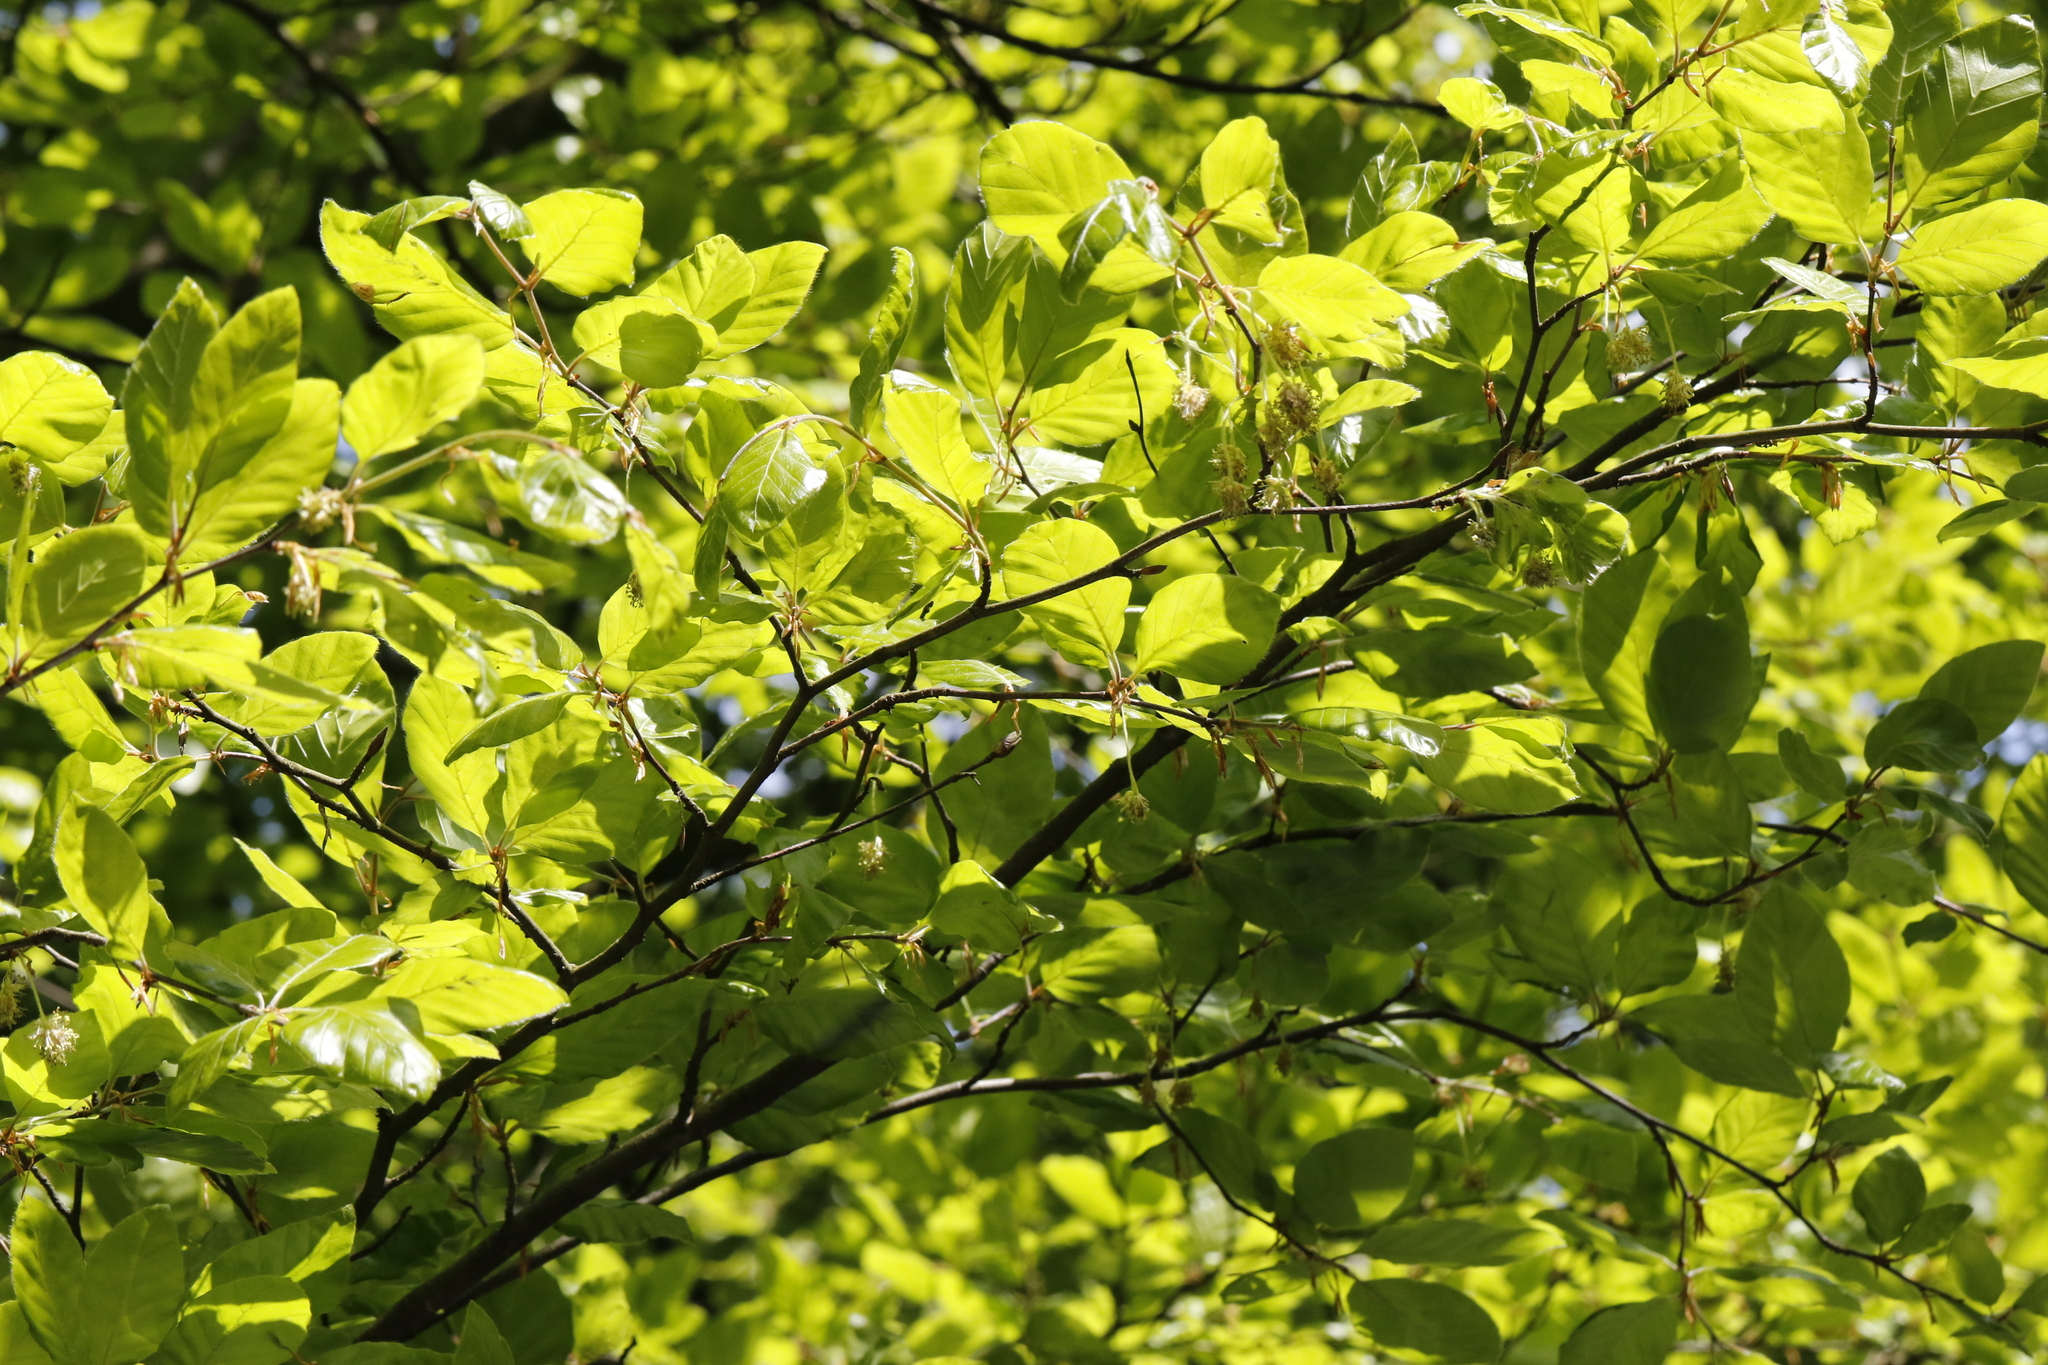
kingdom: Plantae
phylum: Tracheophyta
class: Magnoliopsida
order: Fagales
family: Fagaceae
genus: Fagus
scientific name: Fagus sylvatica
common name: Beech
